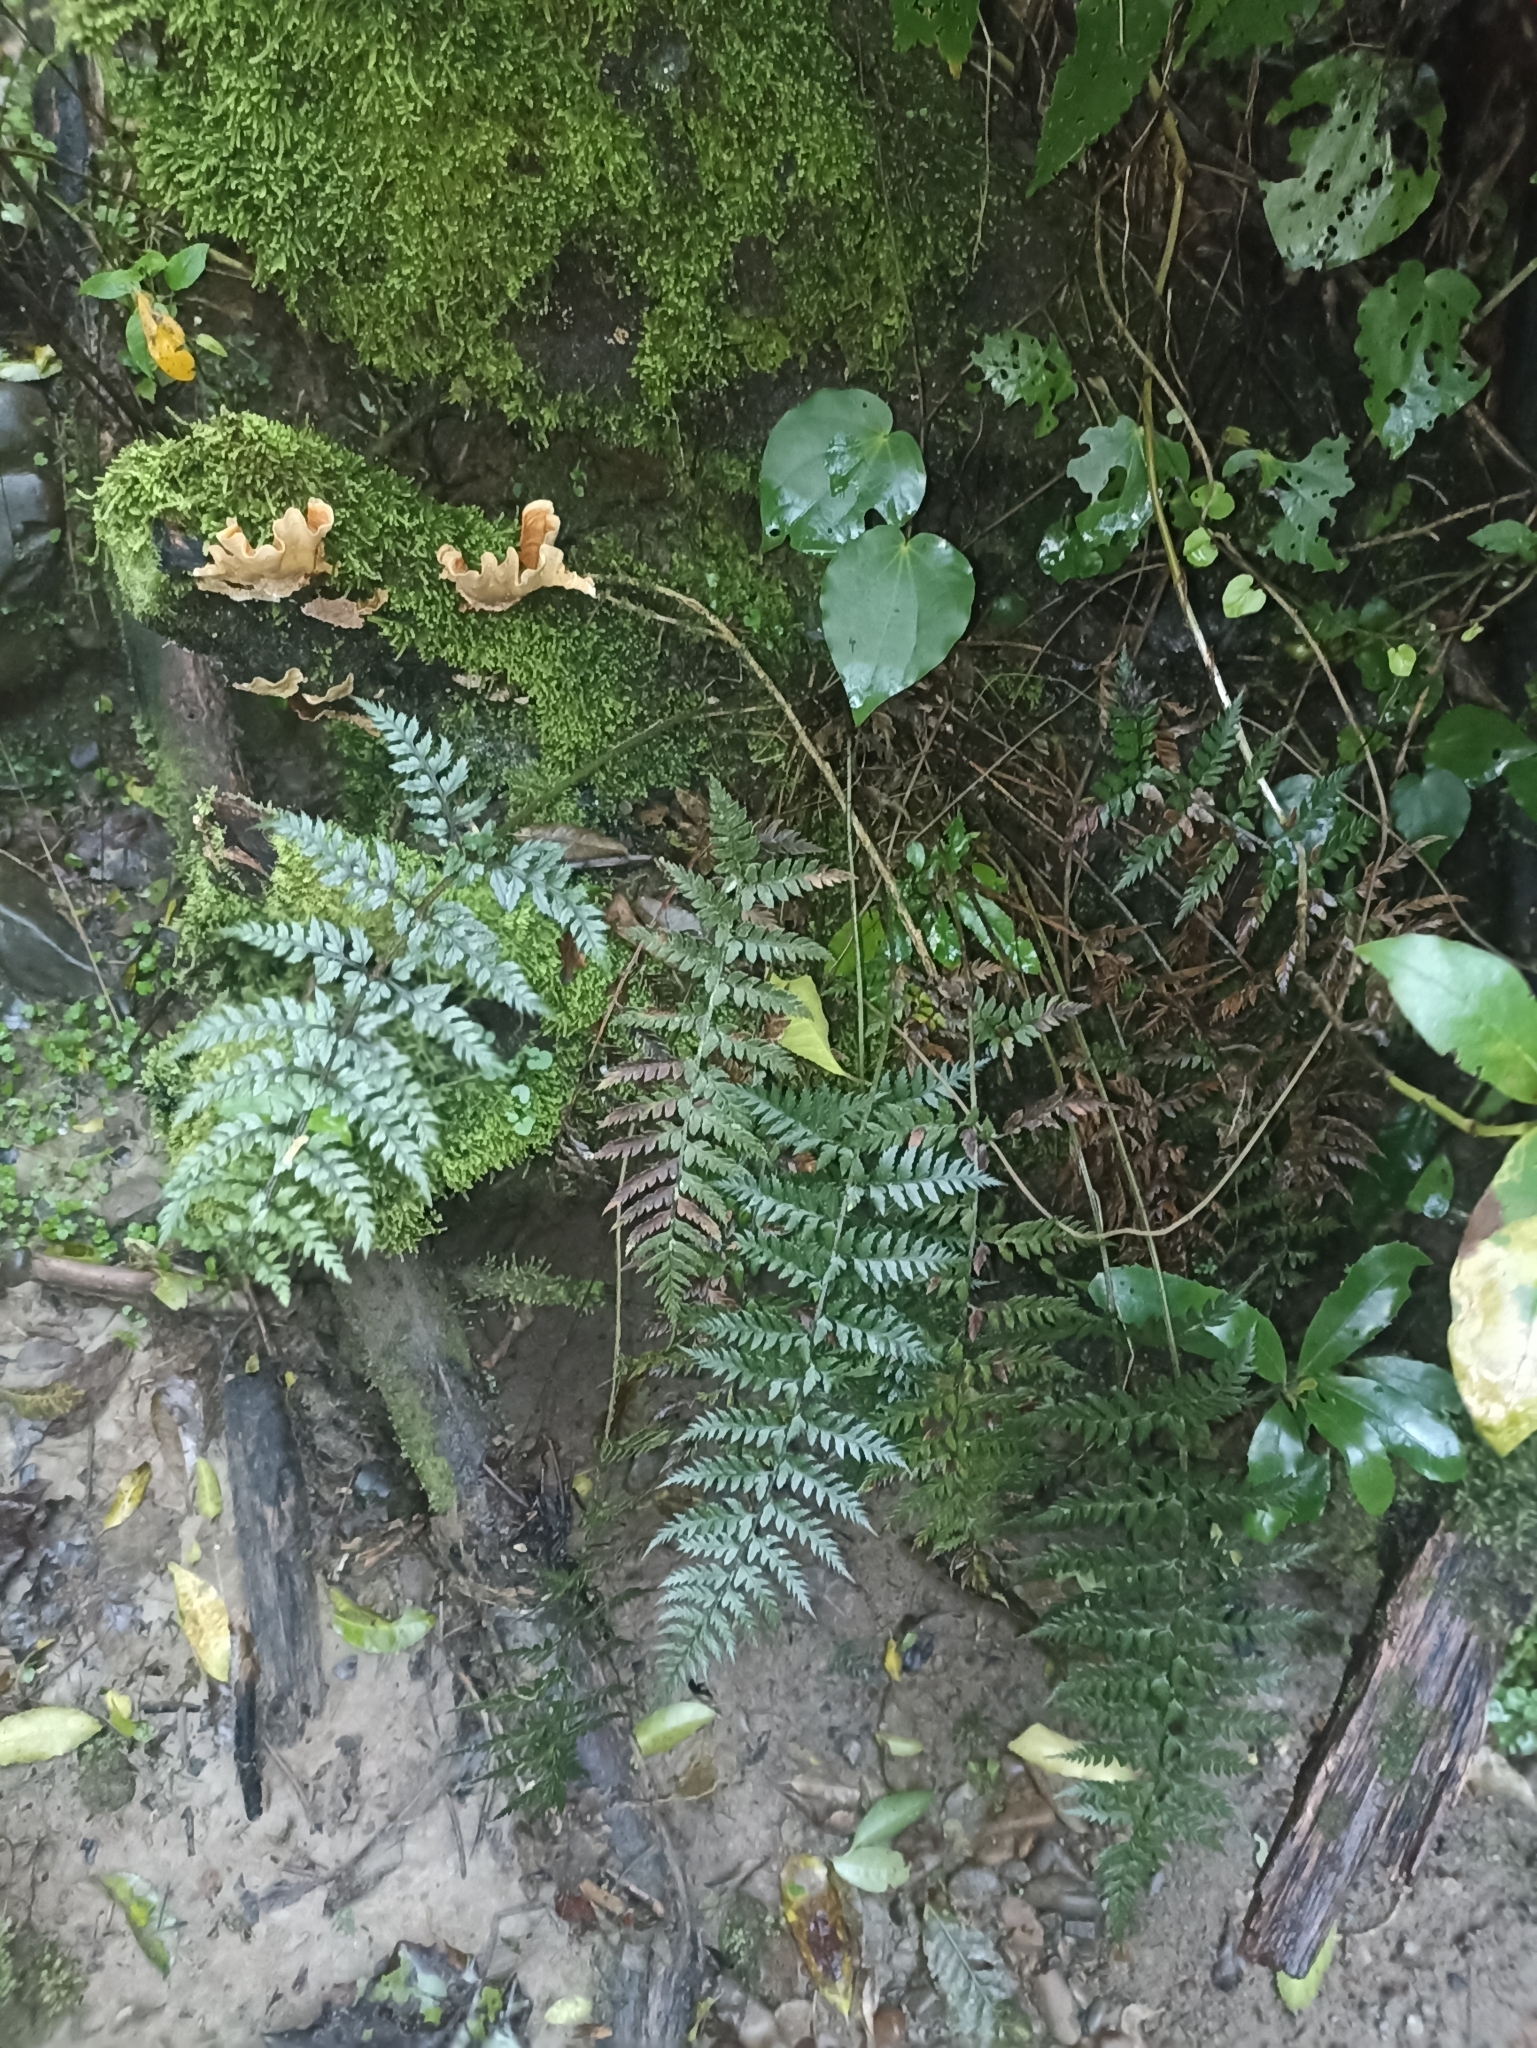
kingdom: Plantae
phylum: Tracheophyta
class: Polypodiopsida
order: Polypodiales
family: Dryopteridaceae
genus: Polystichum
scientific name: Polystichum neozelandicum
